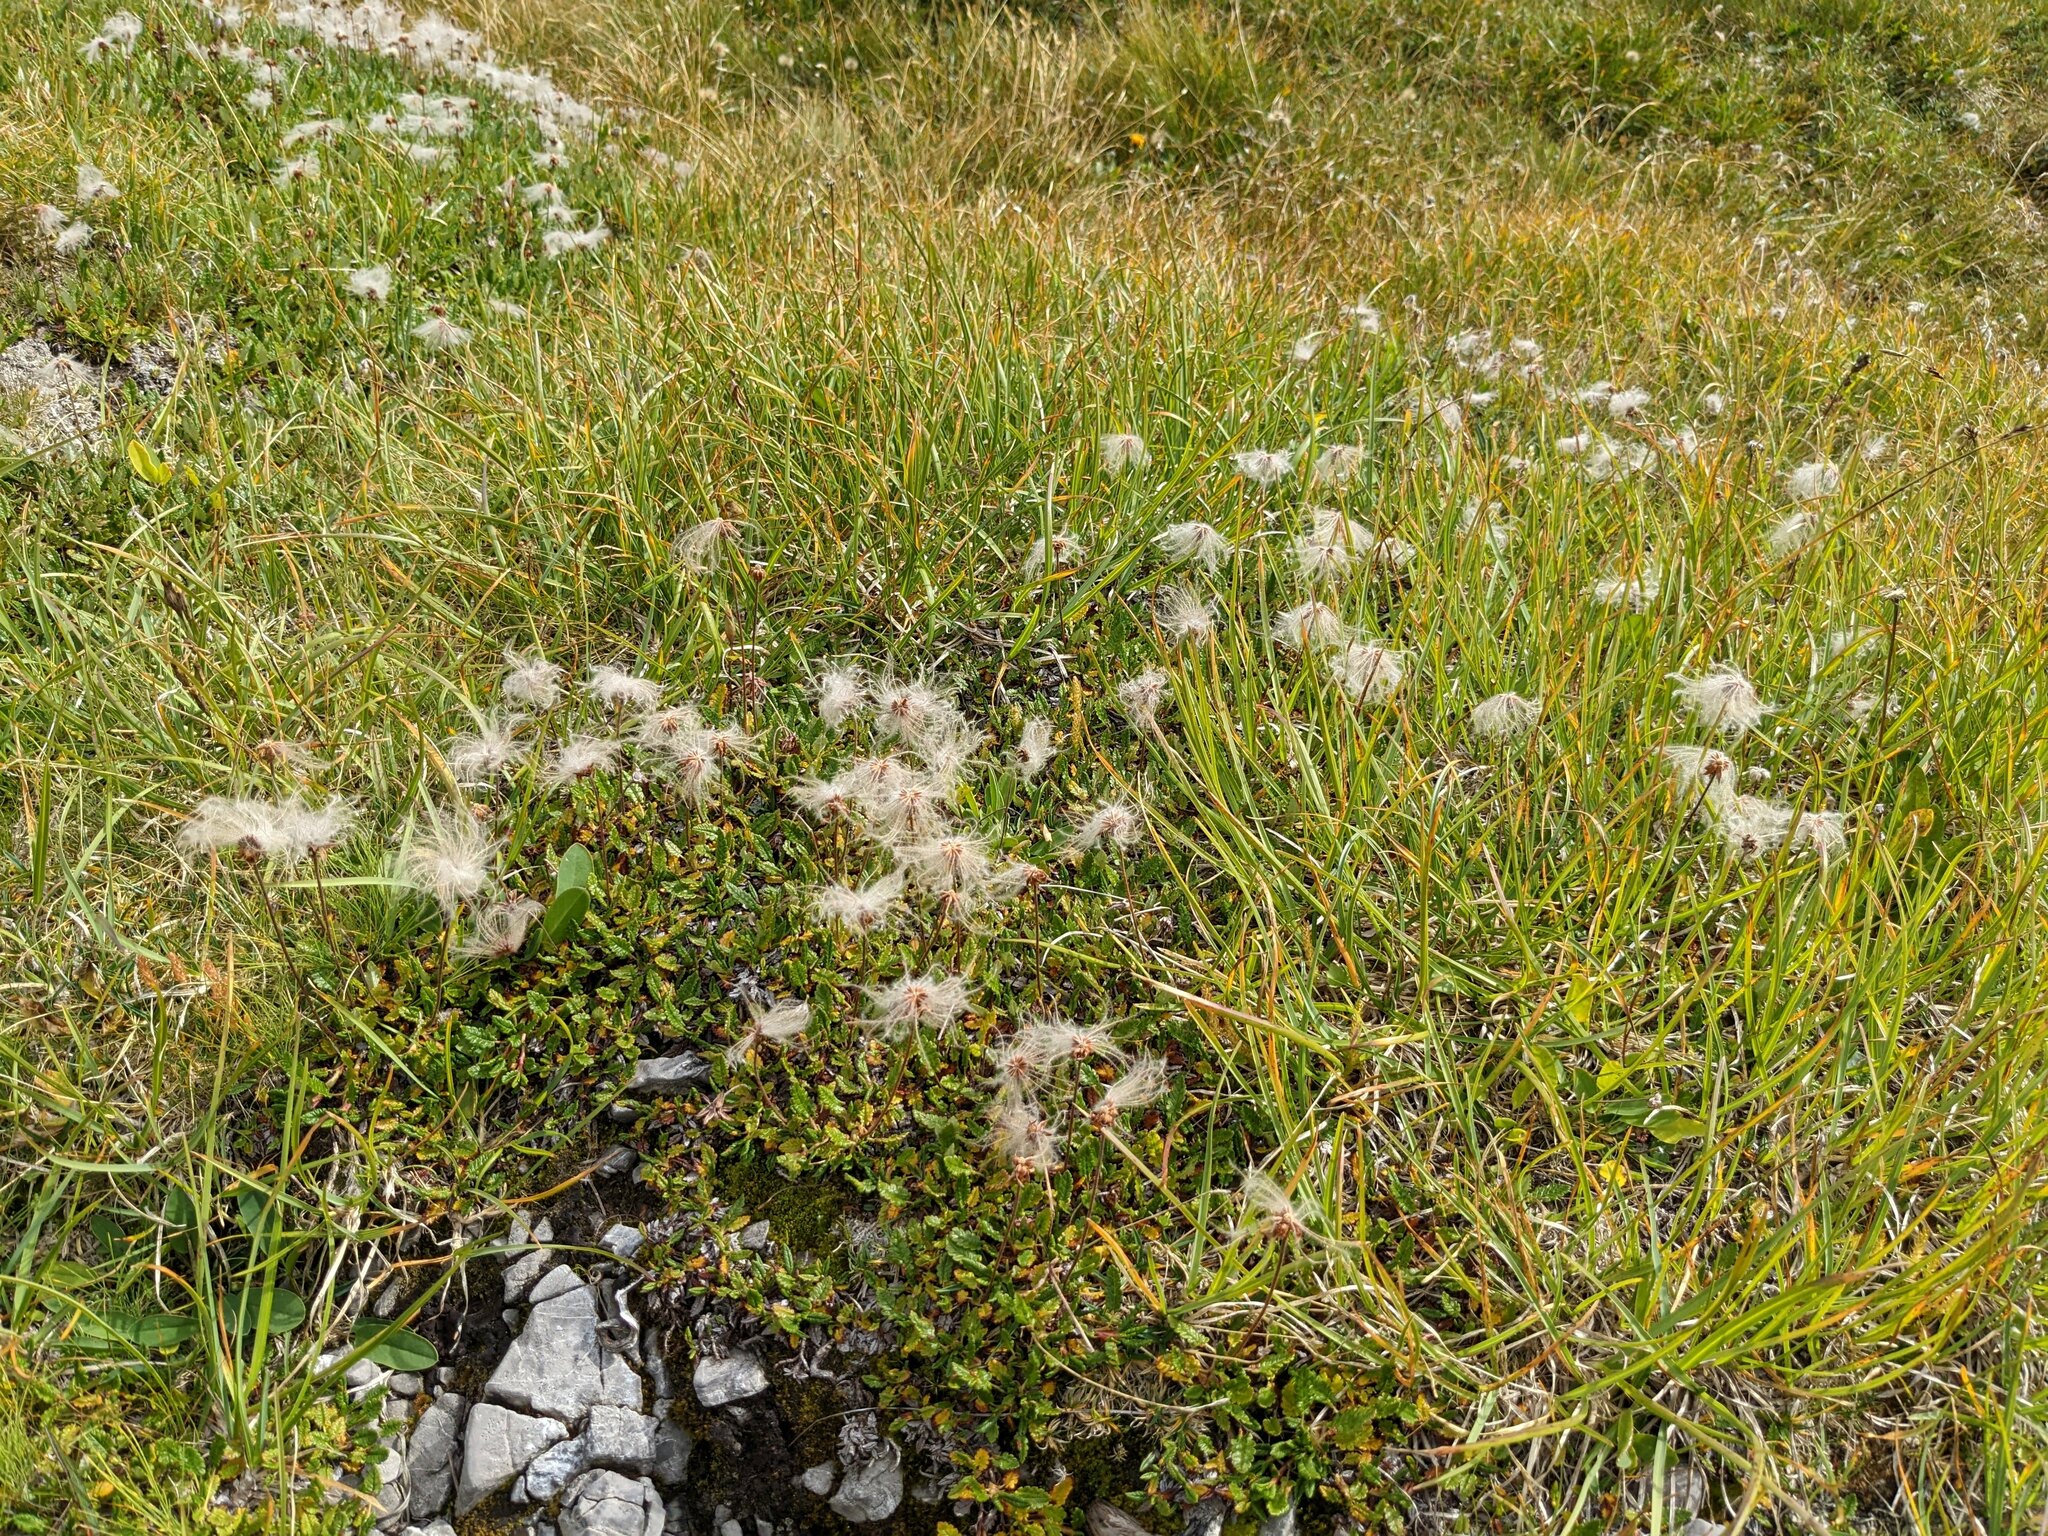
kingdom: Plantae
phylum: Tracheophyta
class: Magnoliopsida
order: Rosales
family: Rosaceae
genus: Dryas
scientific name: Dryas octopetala
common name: Eight-petal mountain-avens
